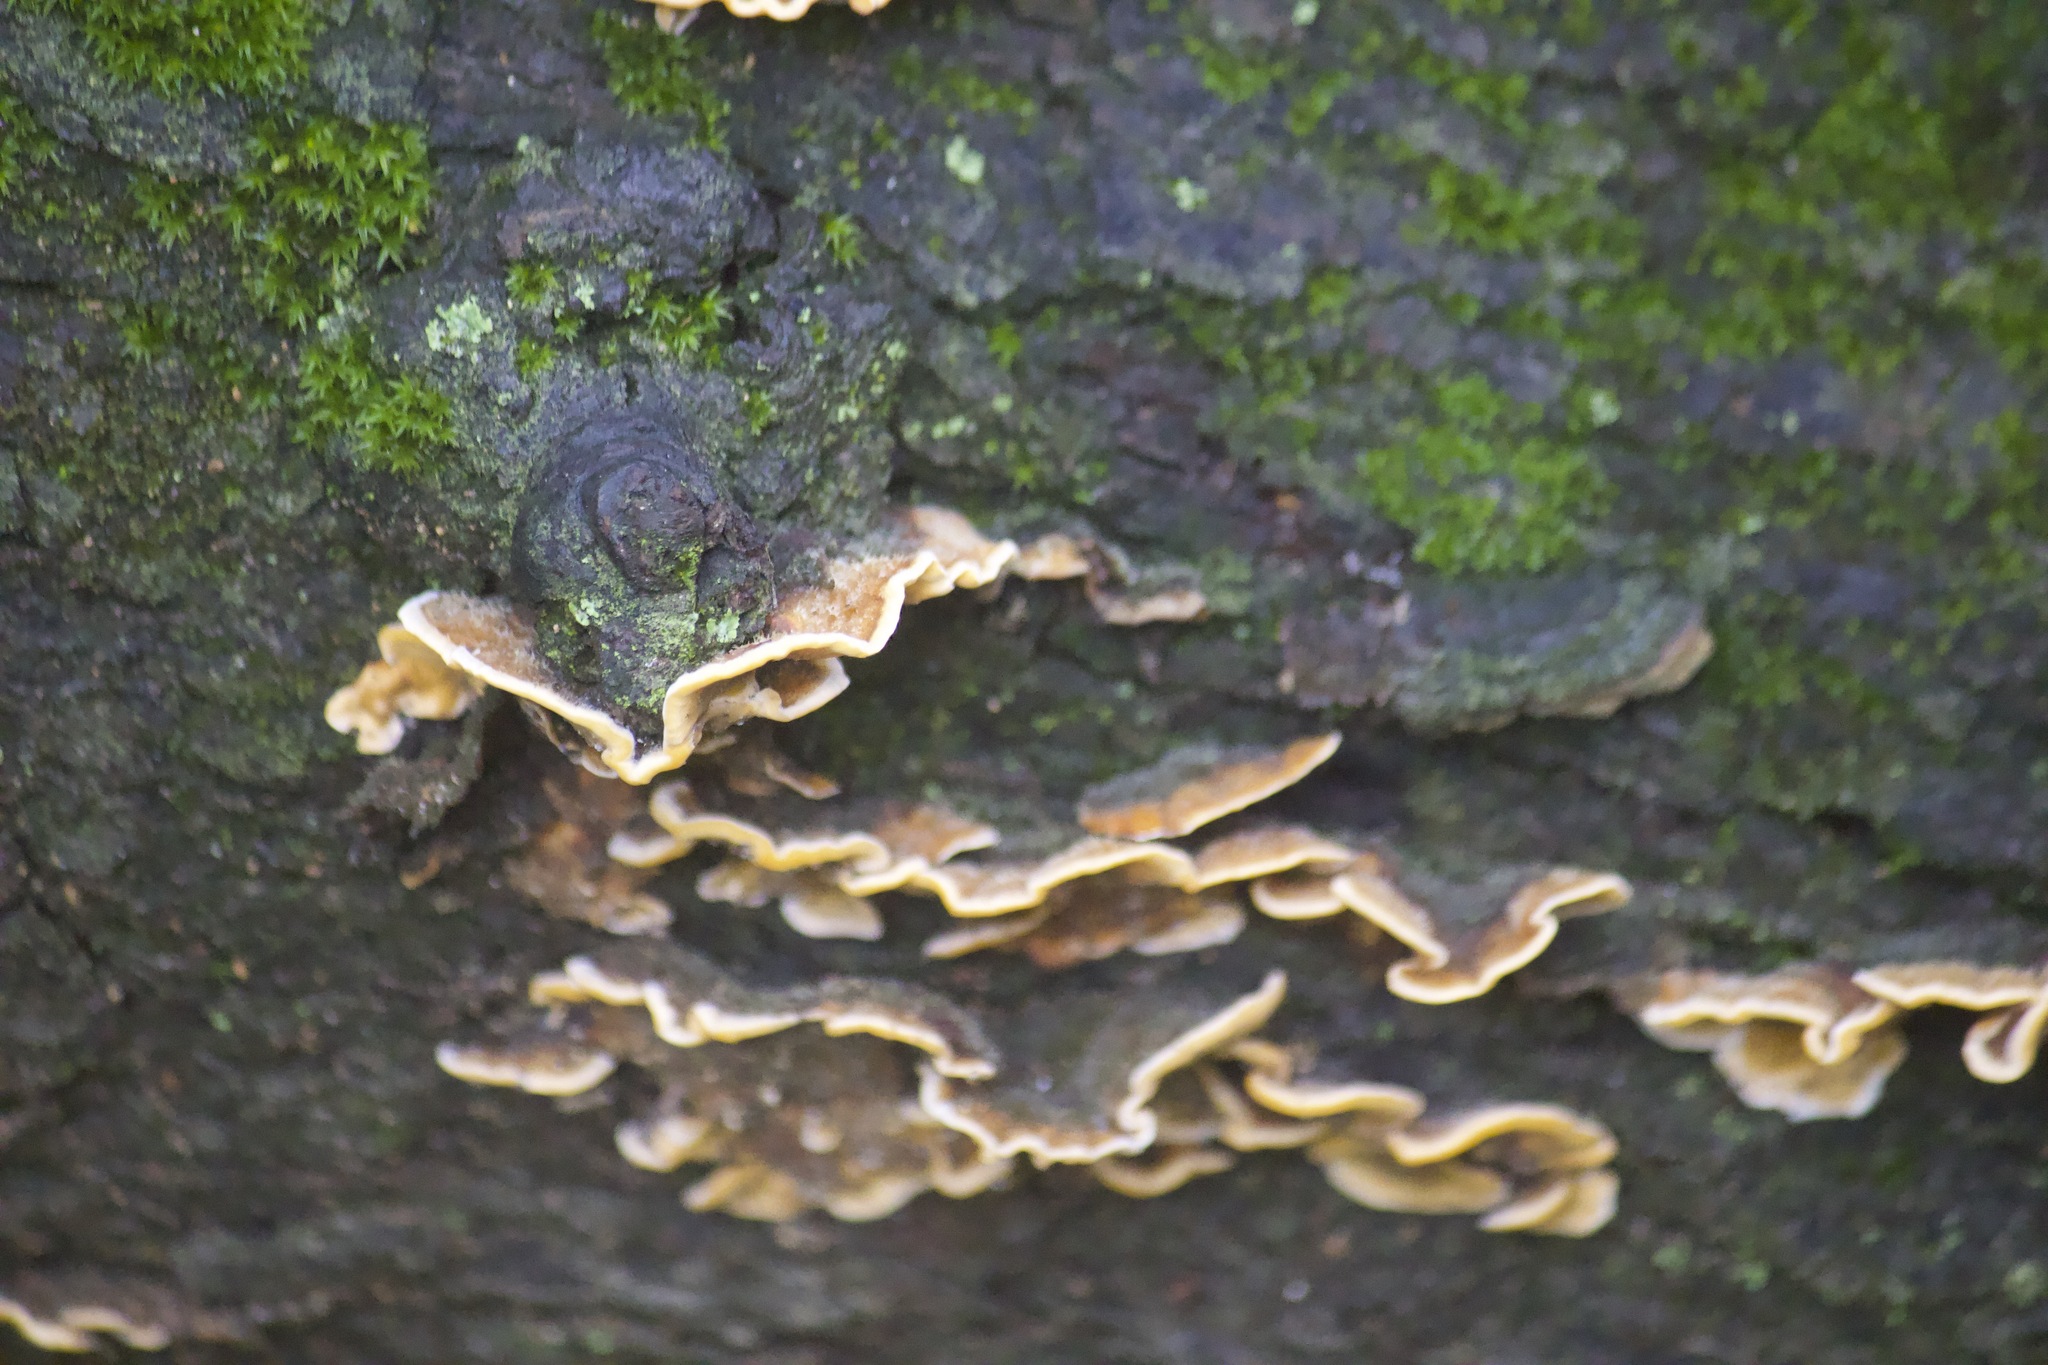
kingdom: Fungi
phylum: Basidiomycota
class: Agaricomycetes
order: Russulales
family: Stereaceae
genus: Stereum
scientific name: Stereum hirsutum
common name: Hairy curtain crust
